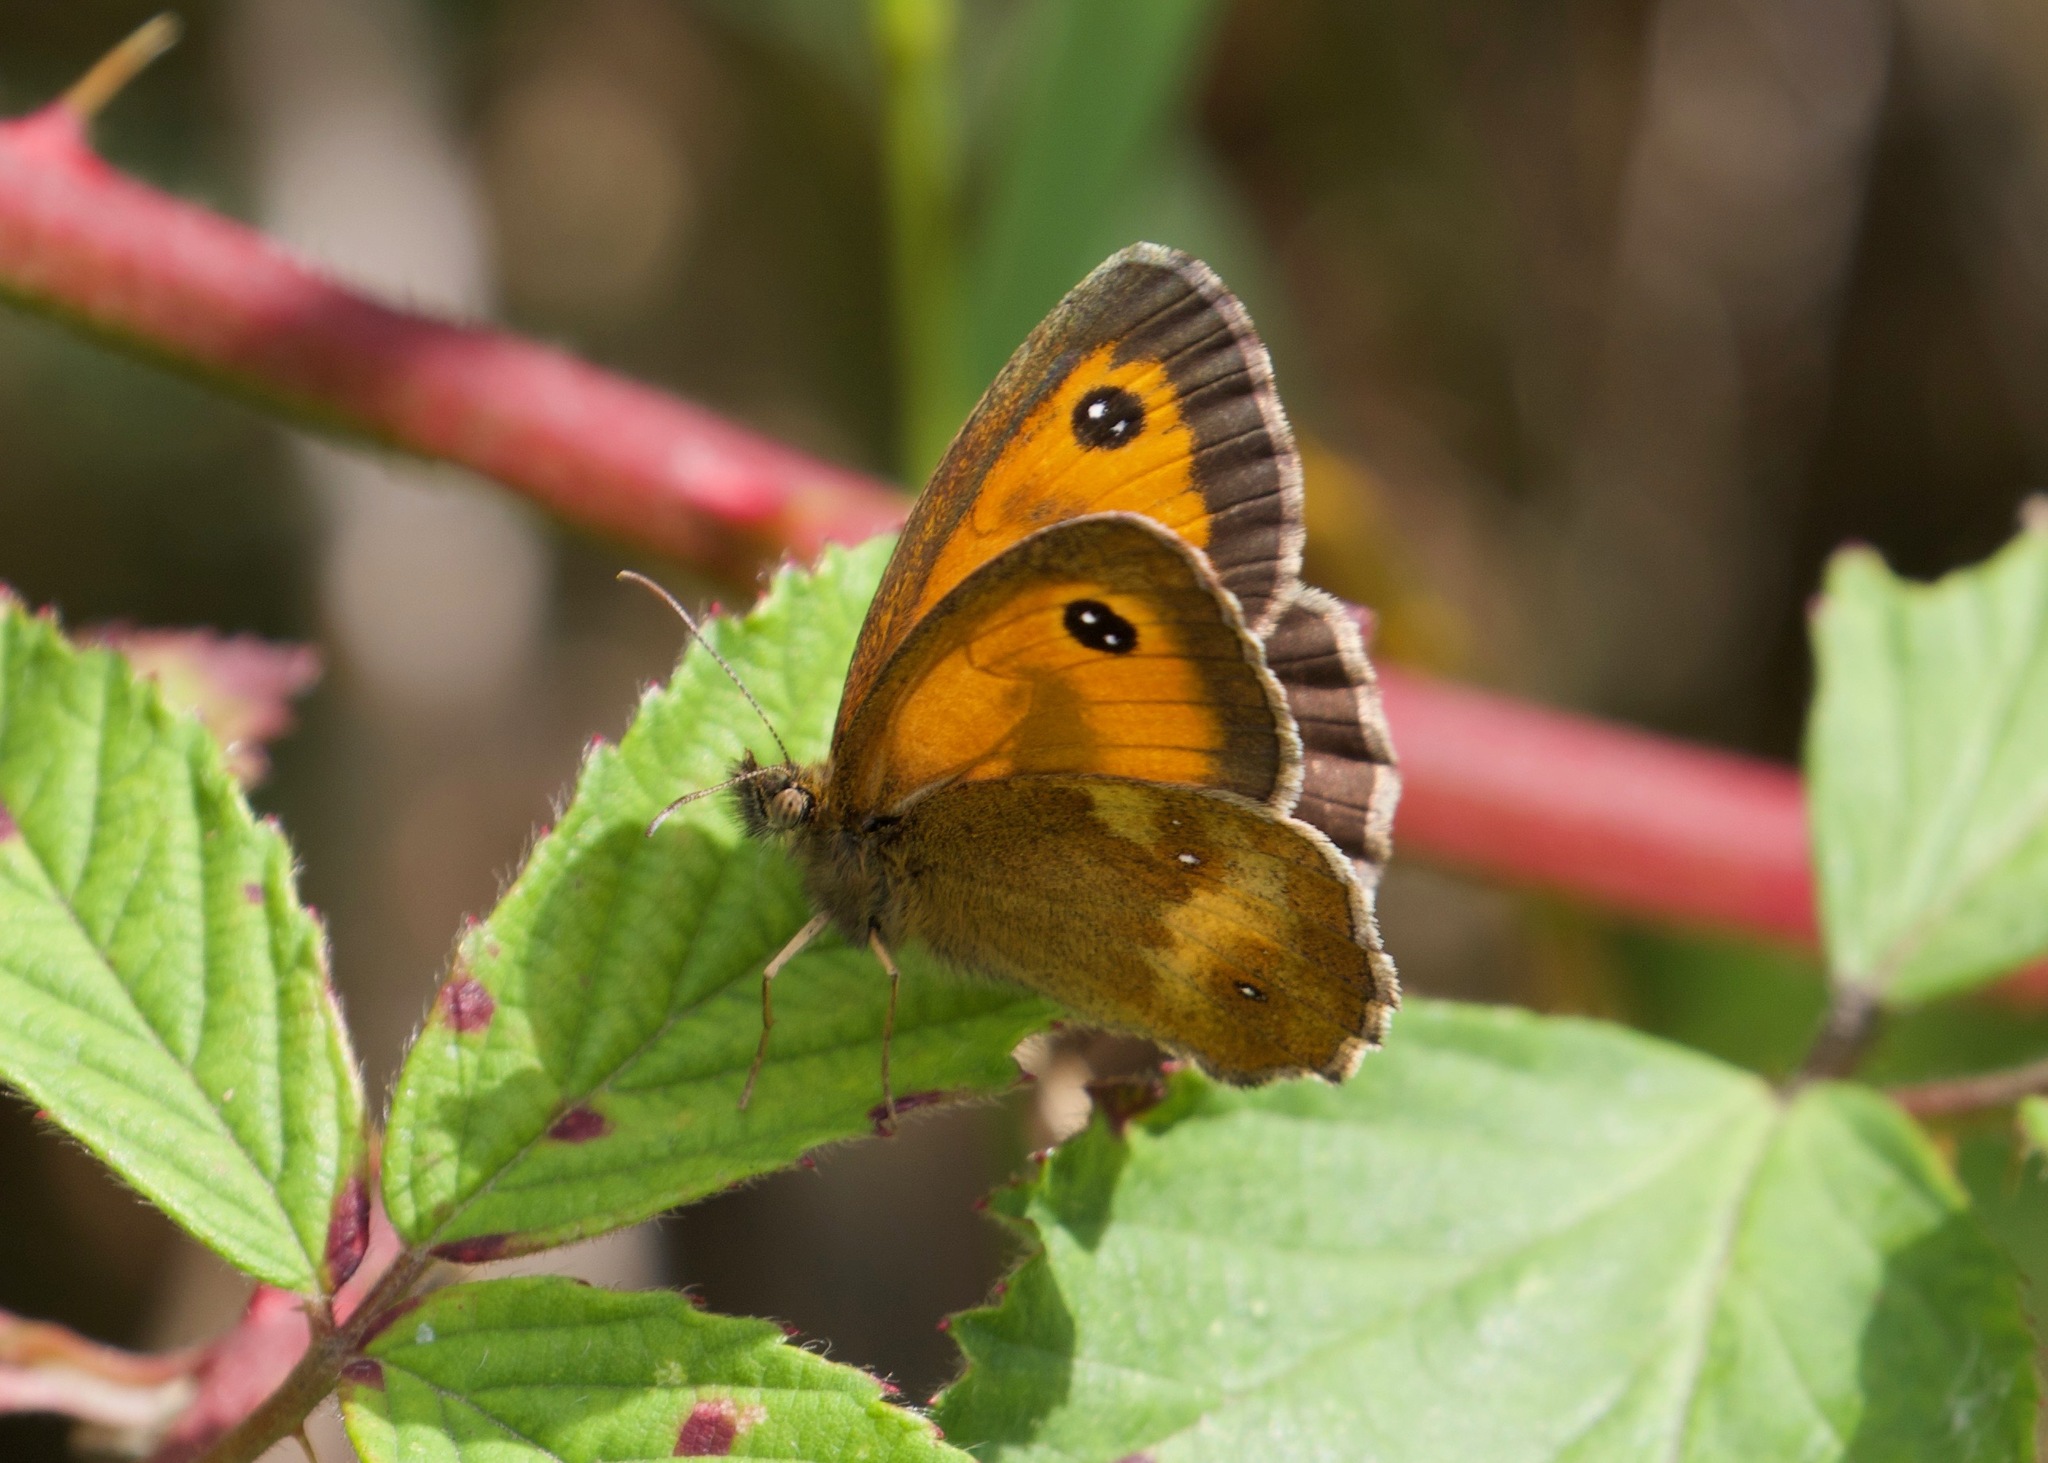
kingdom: Animalia
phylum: Arthropoda
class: Insecta
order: Lepidoptera
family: Nymphalidae
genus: Pyronia
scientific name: Pyronia tithonus
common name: Gatekeeper
